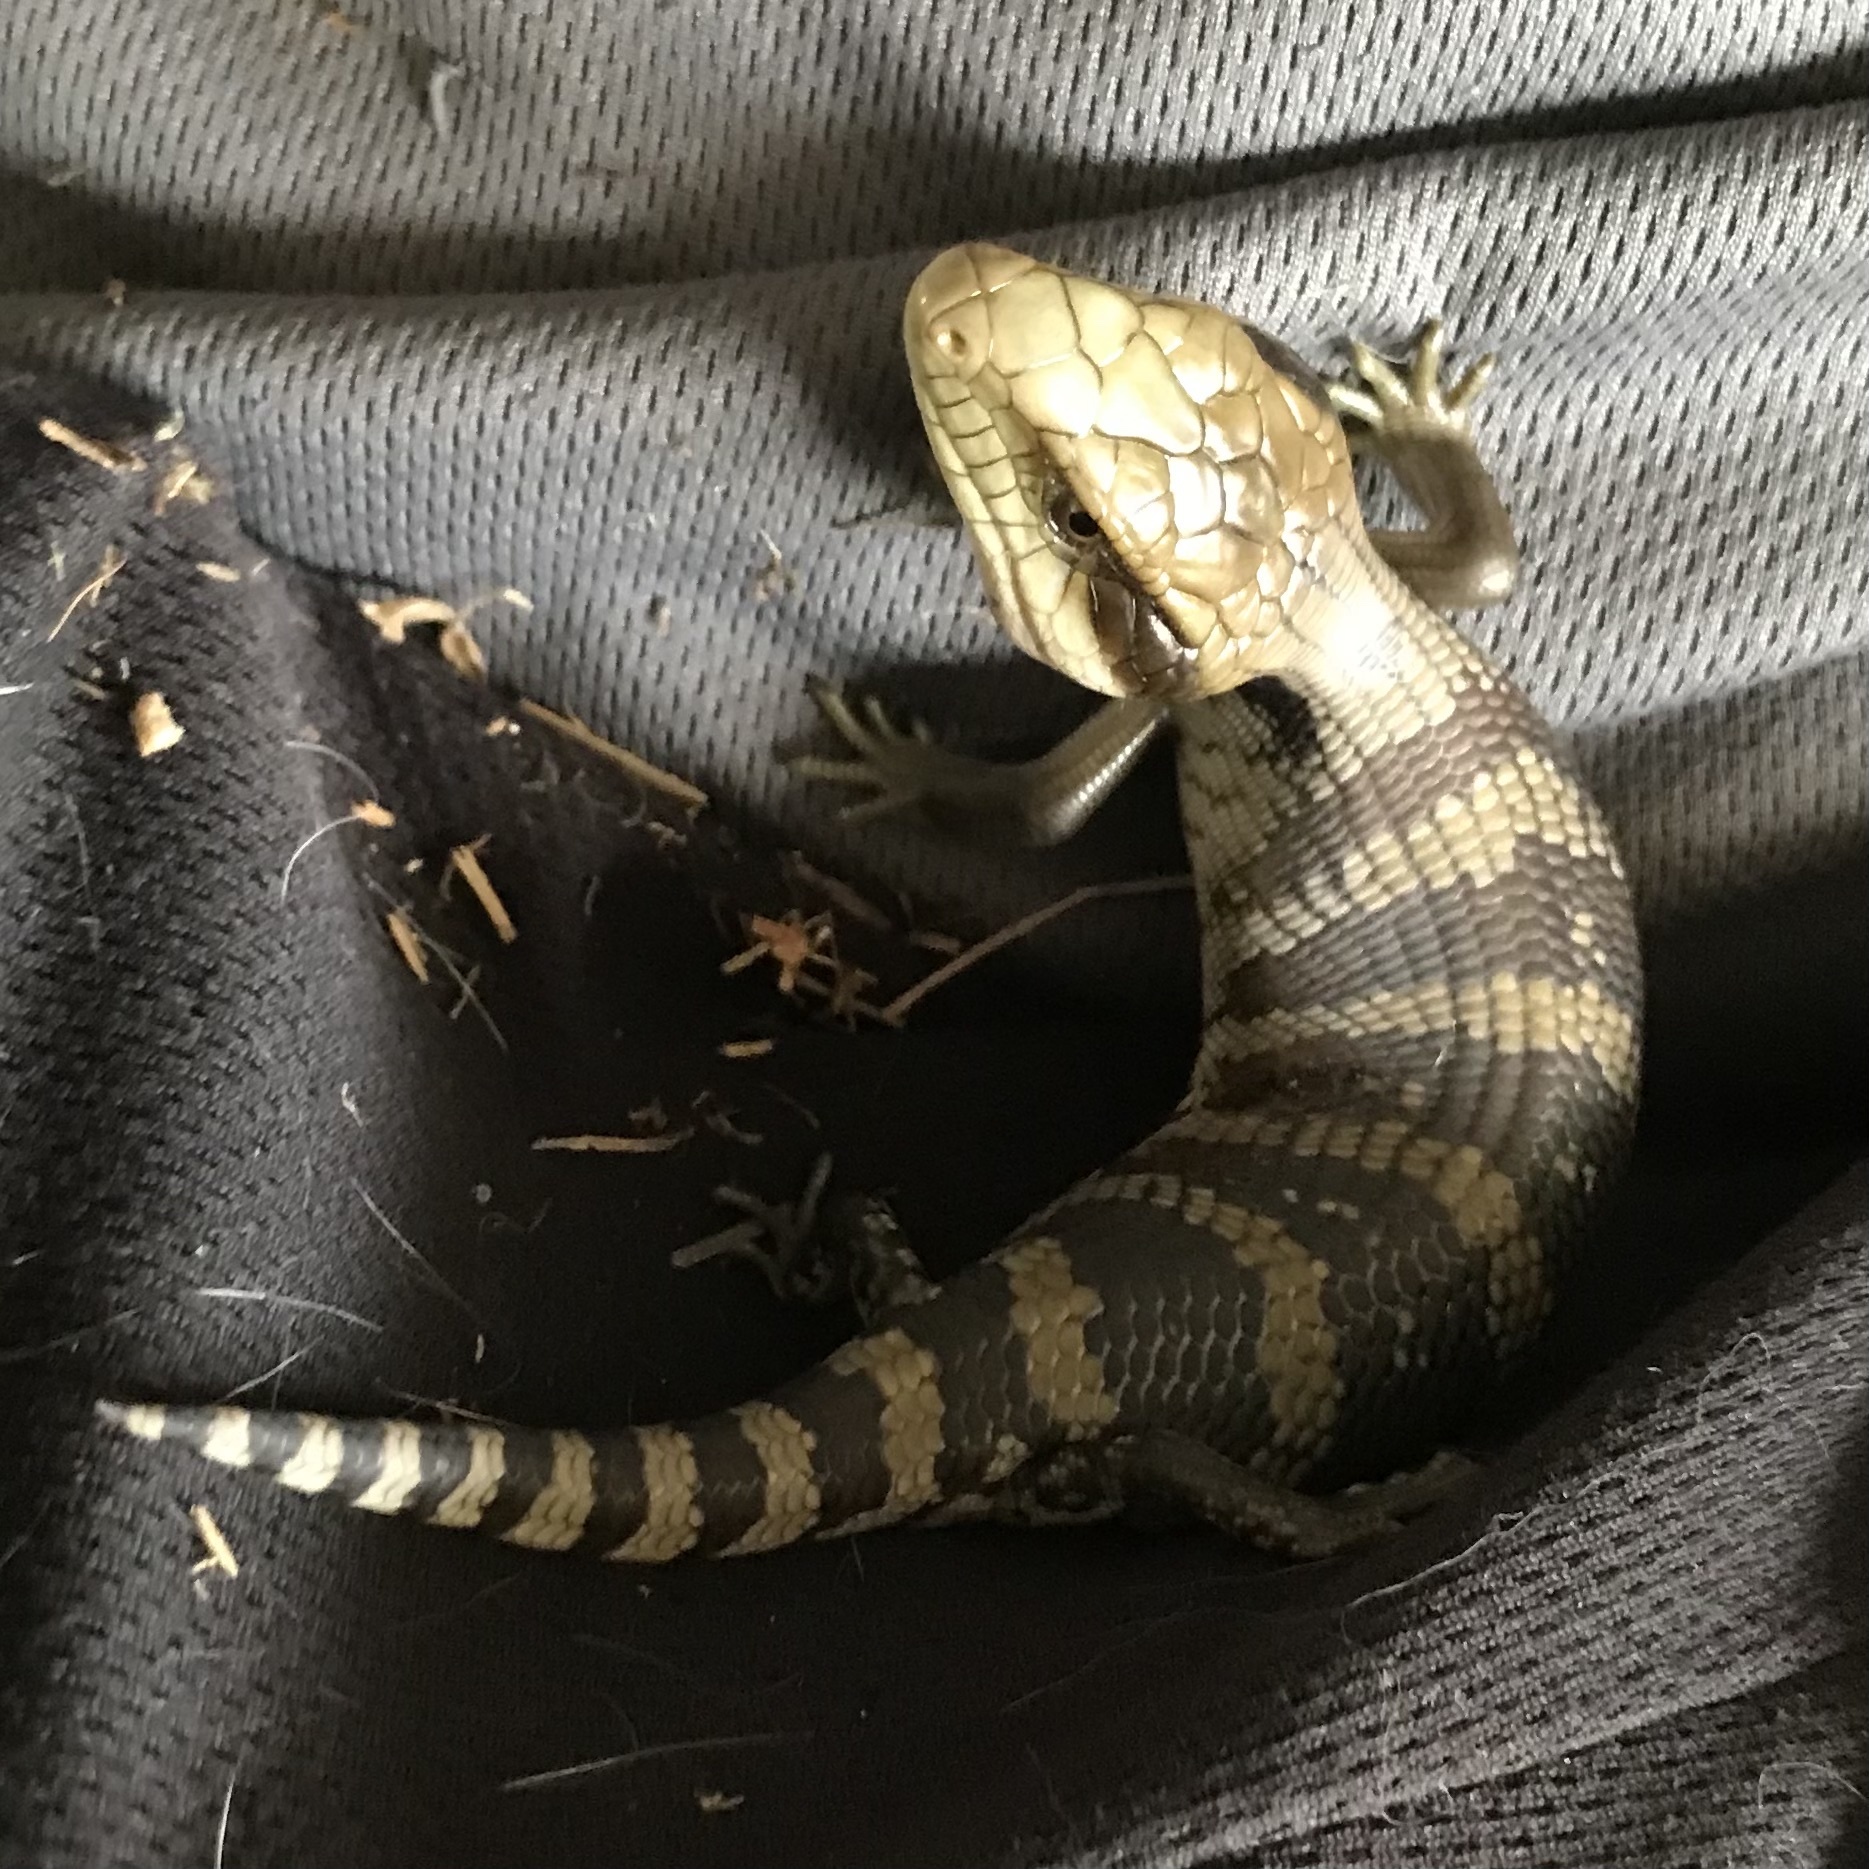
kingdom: Animalia
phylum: Chordata
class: Squamata
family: Scincidae
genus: Tiliqua
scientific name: Tiliqua scincoides
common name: Common bluetongue
